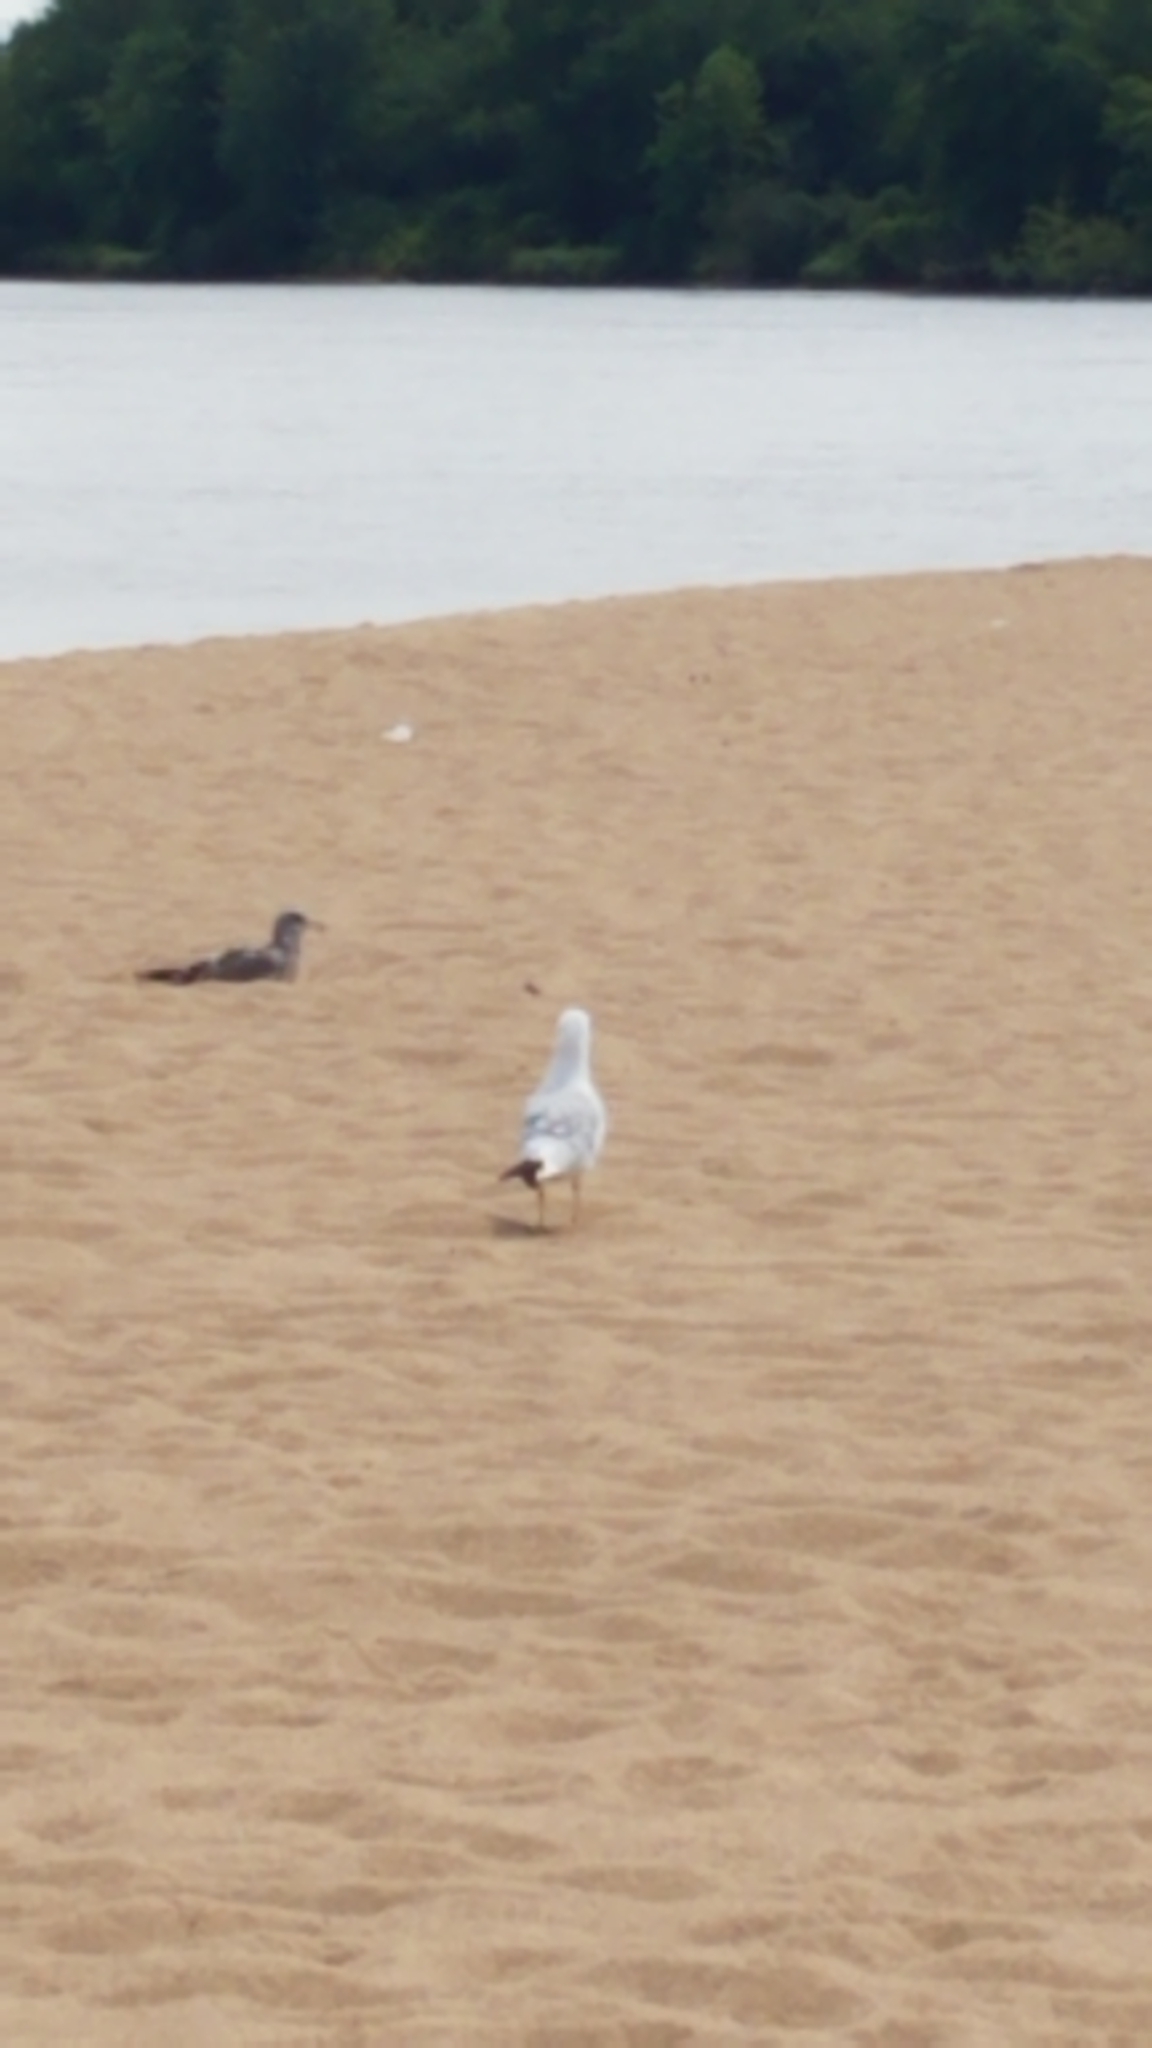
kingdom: Animalia
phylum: Chordata
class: Aves
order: Charadriiformes
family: Laridae
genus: Larus
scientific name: Larus delawarensis
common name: Ring-billed gull
